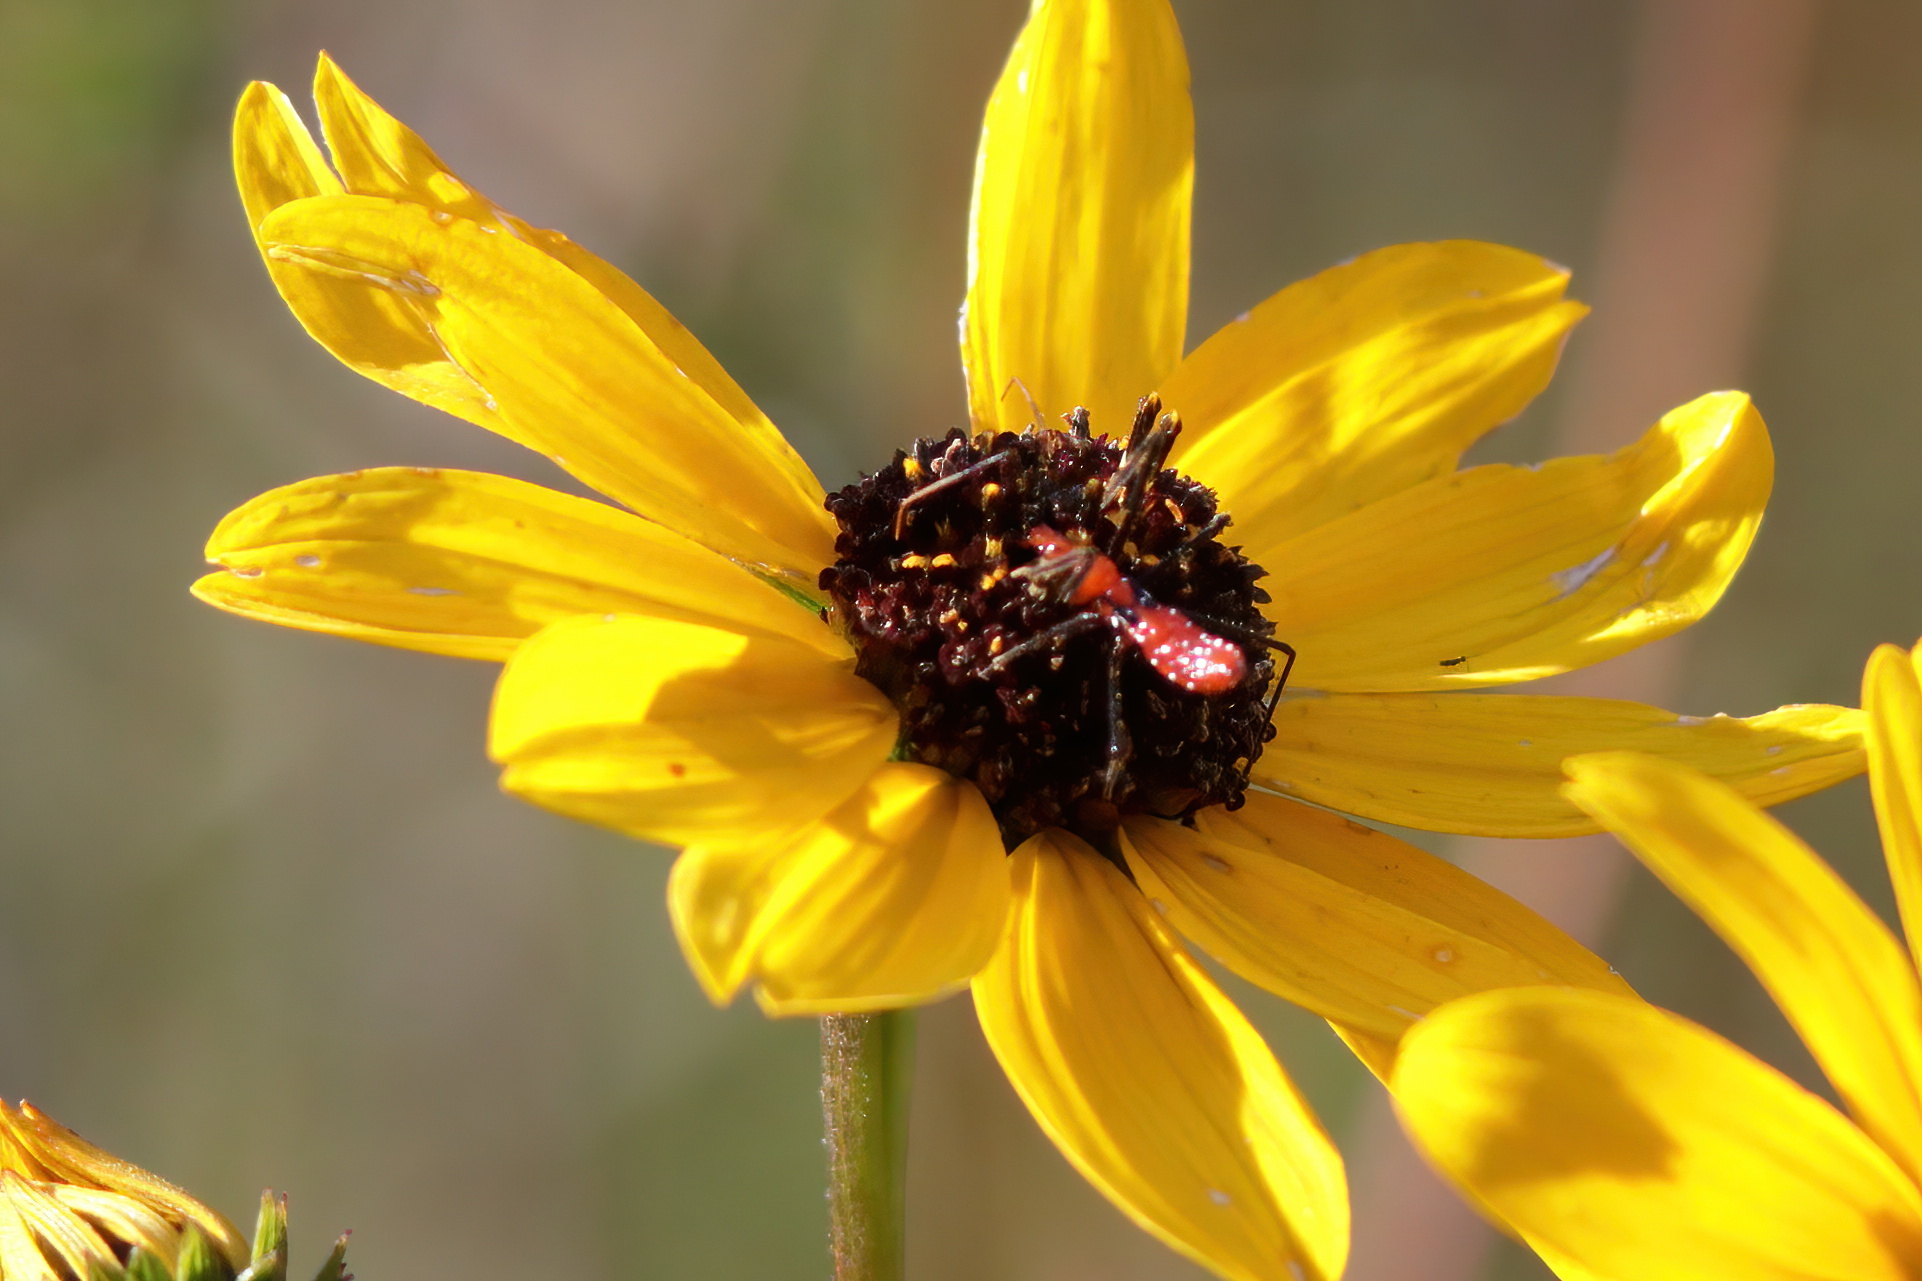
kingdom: Animalia
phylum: Arthropoda
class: Insecta
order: Hemiptera
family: Reduviidae
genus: Zelus
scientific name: Zelus longipes
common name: Milkweed assassin bug
